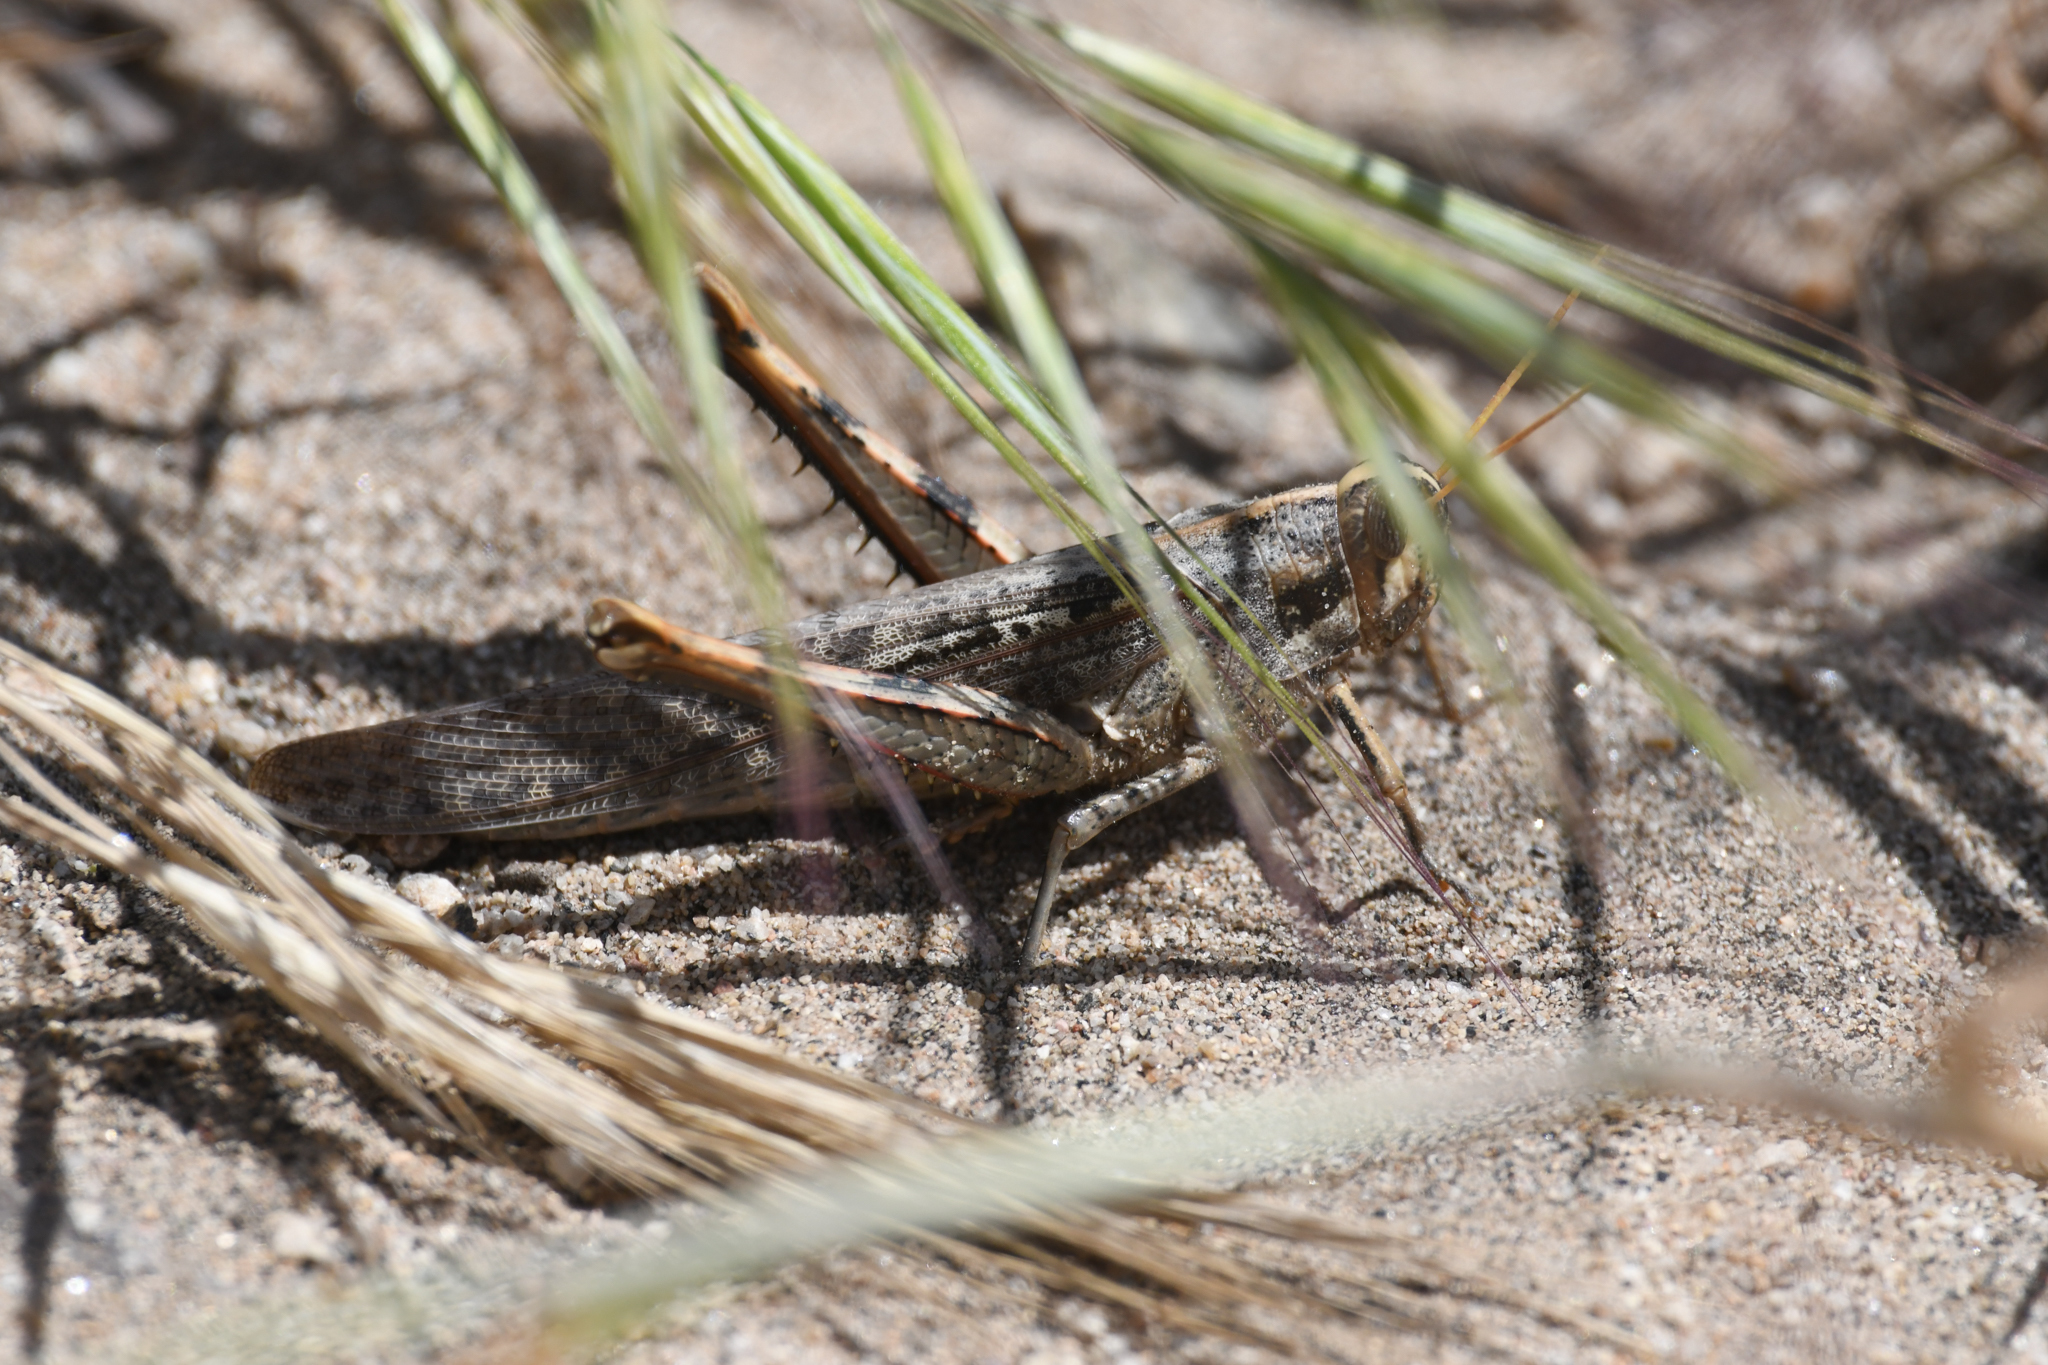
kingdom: Animalia
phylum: Arthropoda
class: Insecta
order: Orthoptera
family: Acrididae
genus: Schistocerca
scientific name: Schistocerca nitens
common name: Vagrant grasshopper
